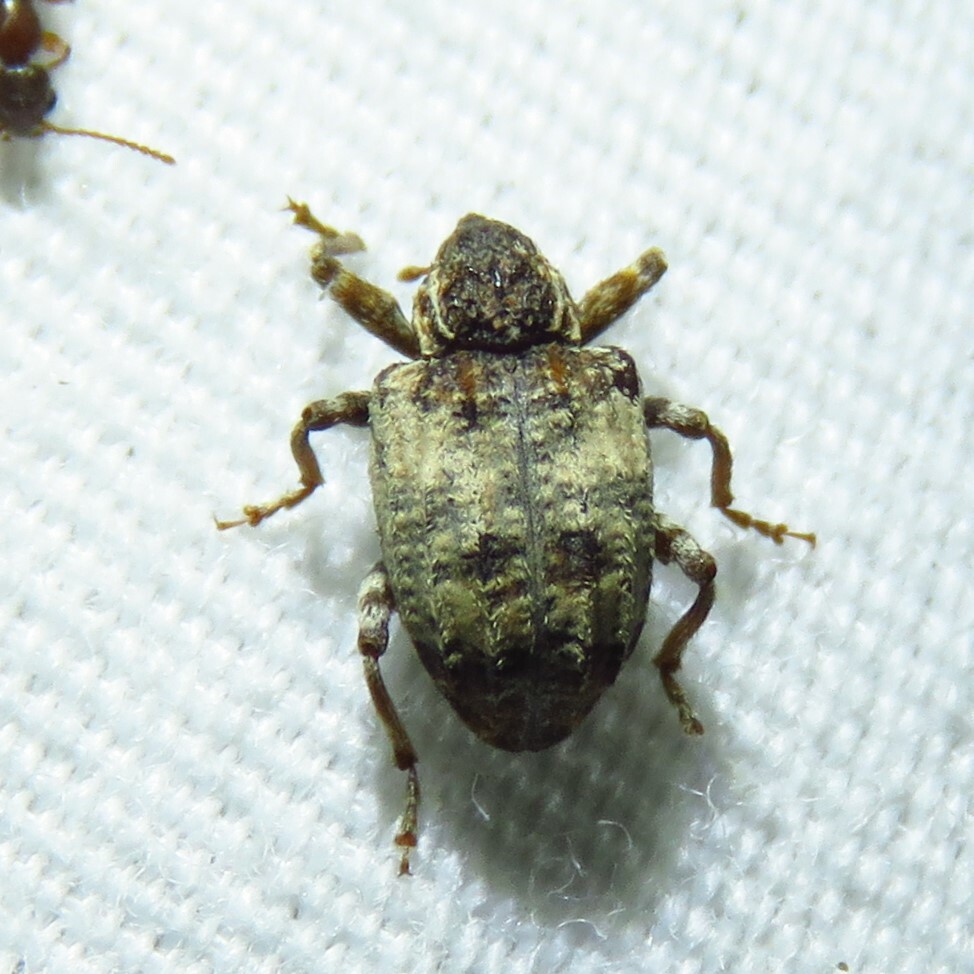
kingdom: Animalia
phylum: Arthropoda
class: Insecta
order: Coleoptera
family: Curculionidae
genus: Conotrachelus
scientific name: Conotrachelus leucophaeatus
